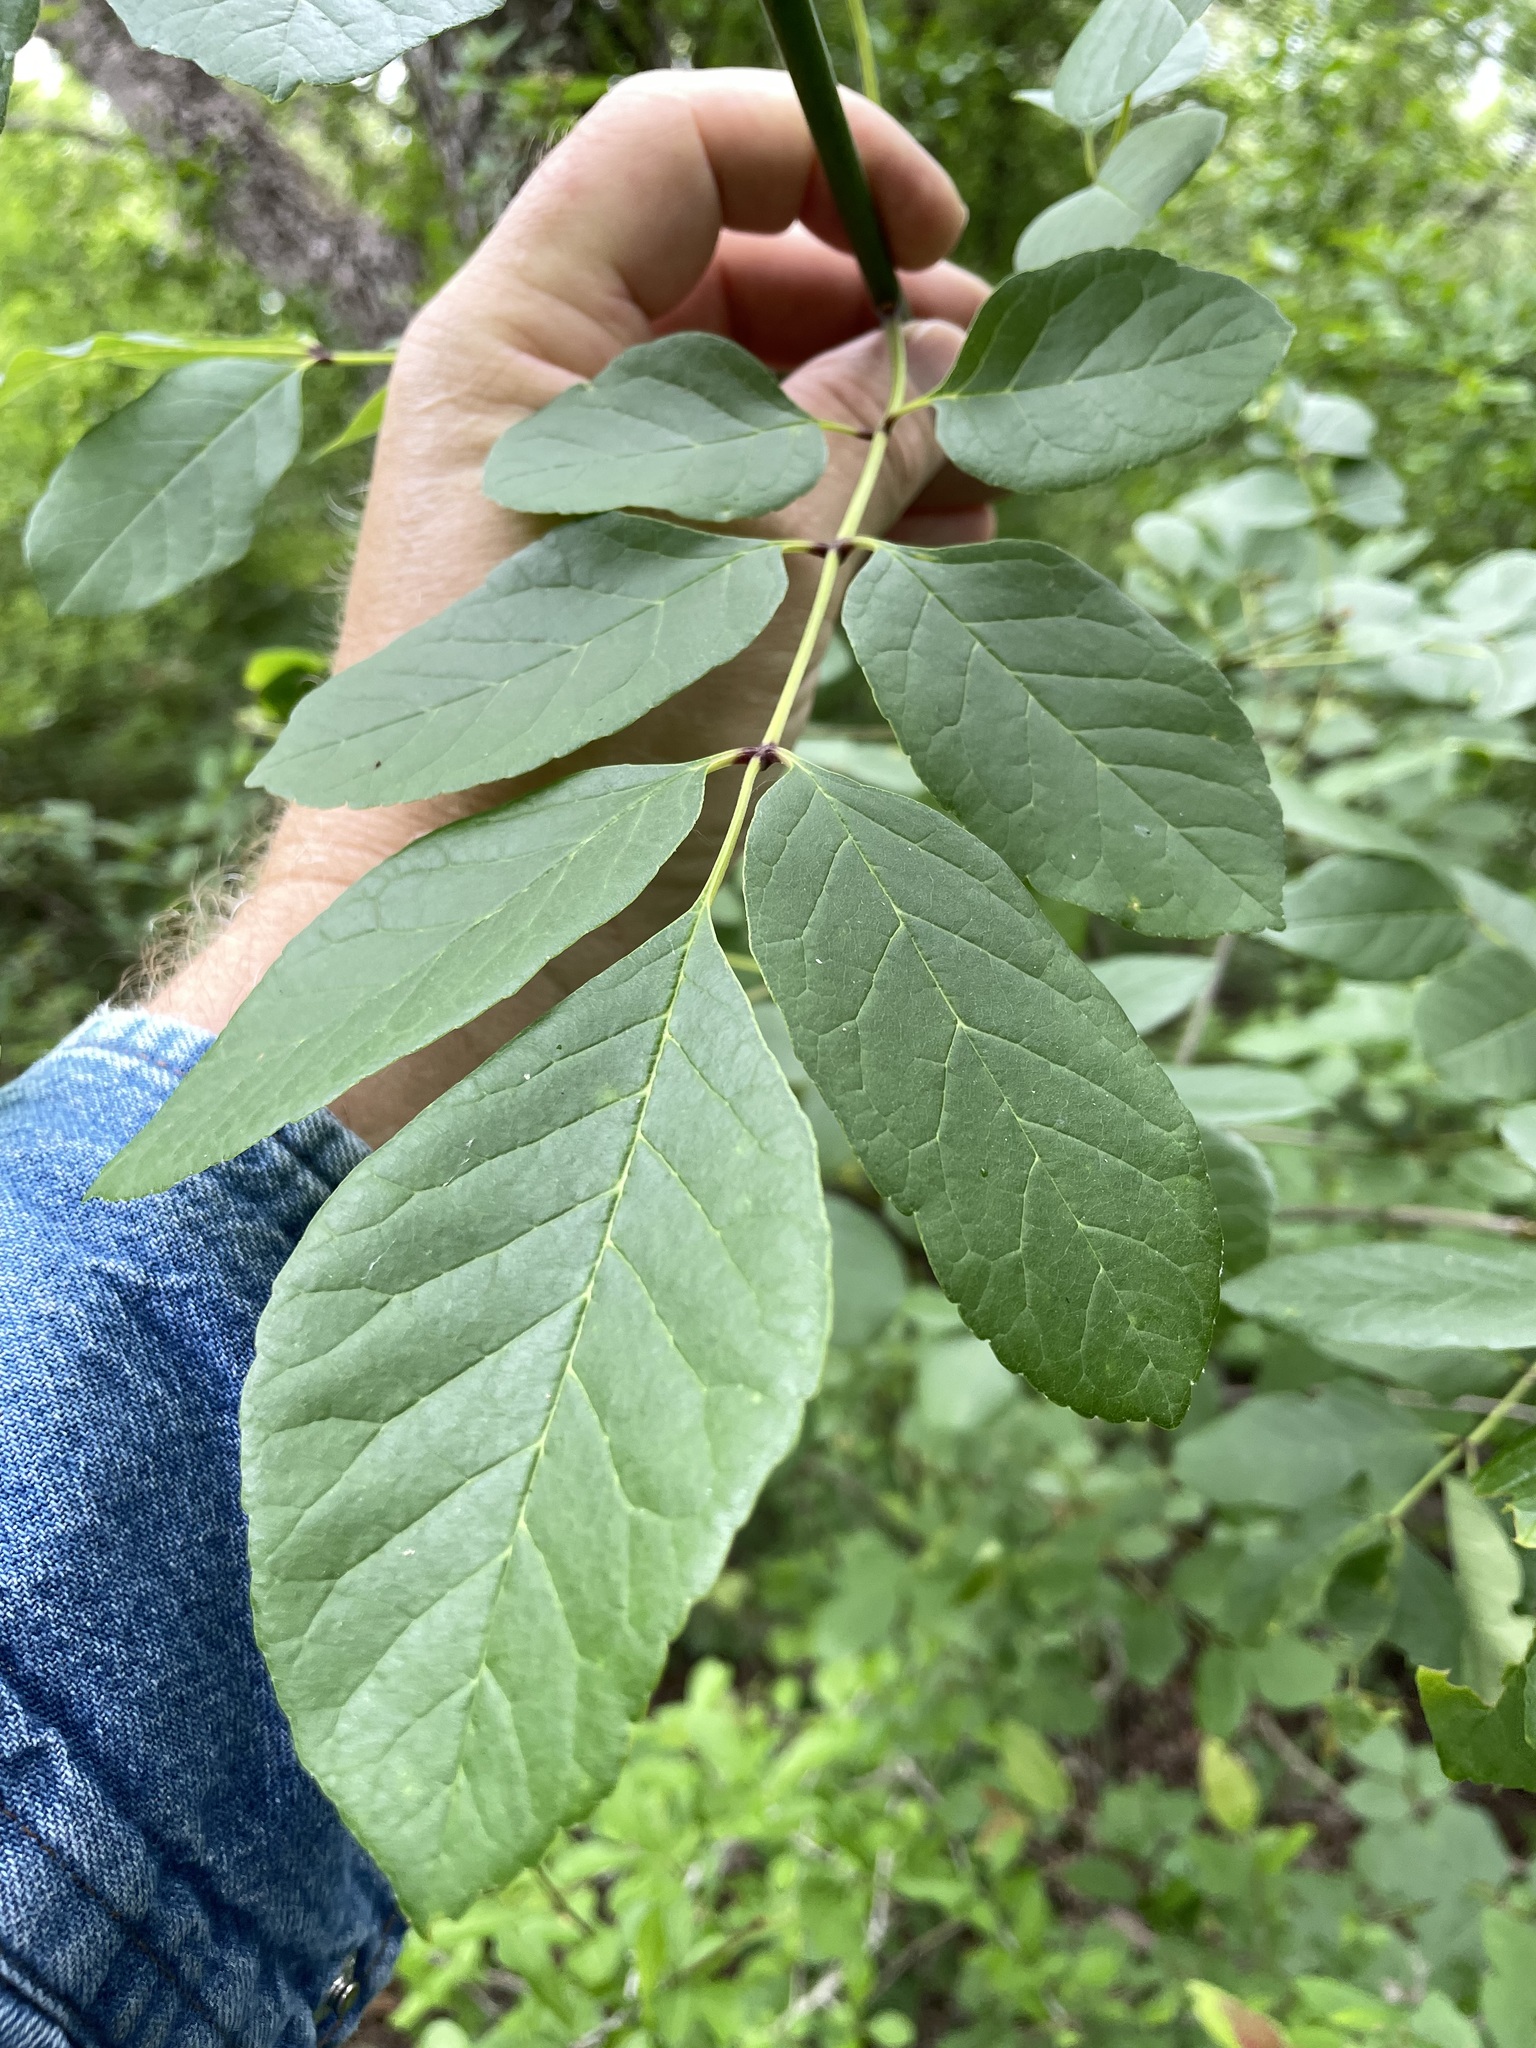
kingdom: Plantae
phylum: Tracheophyta
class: Magnoliopsida
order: Lamiales
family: Oleaceae
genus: Fraxinus
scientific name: Fraxinus albicans
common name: Texas ash
